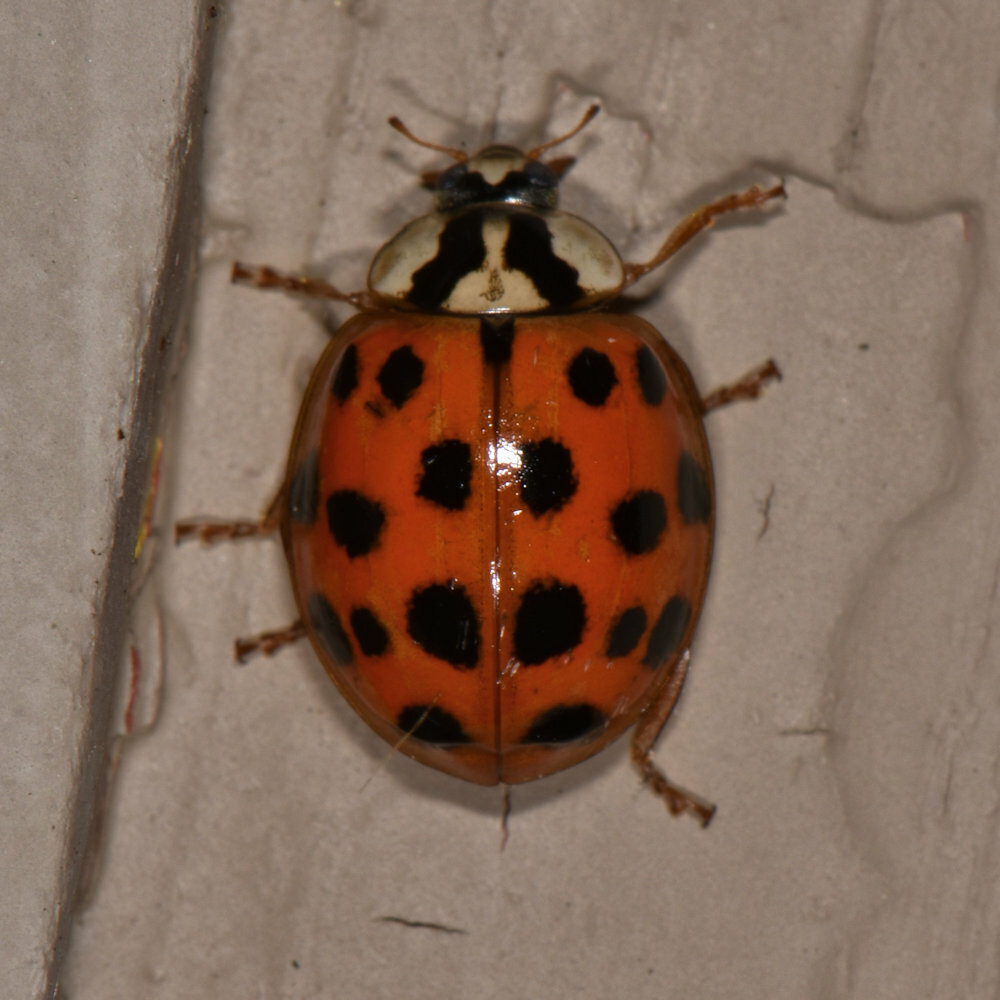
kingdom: Animalia
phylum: Arthropoda
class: Insecta
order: Coleoptera
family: Coccinellidae
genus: Harmonia
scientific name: Harmonia axyridis
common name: Harlequin ladybird
